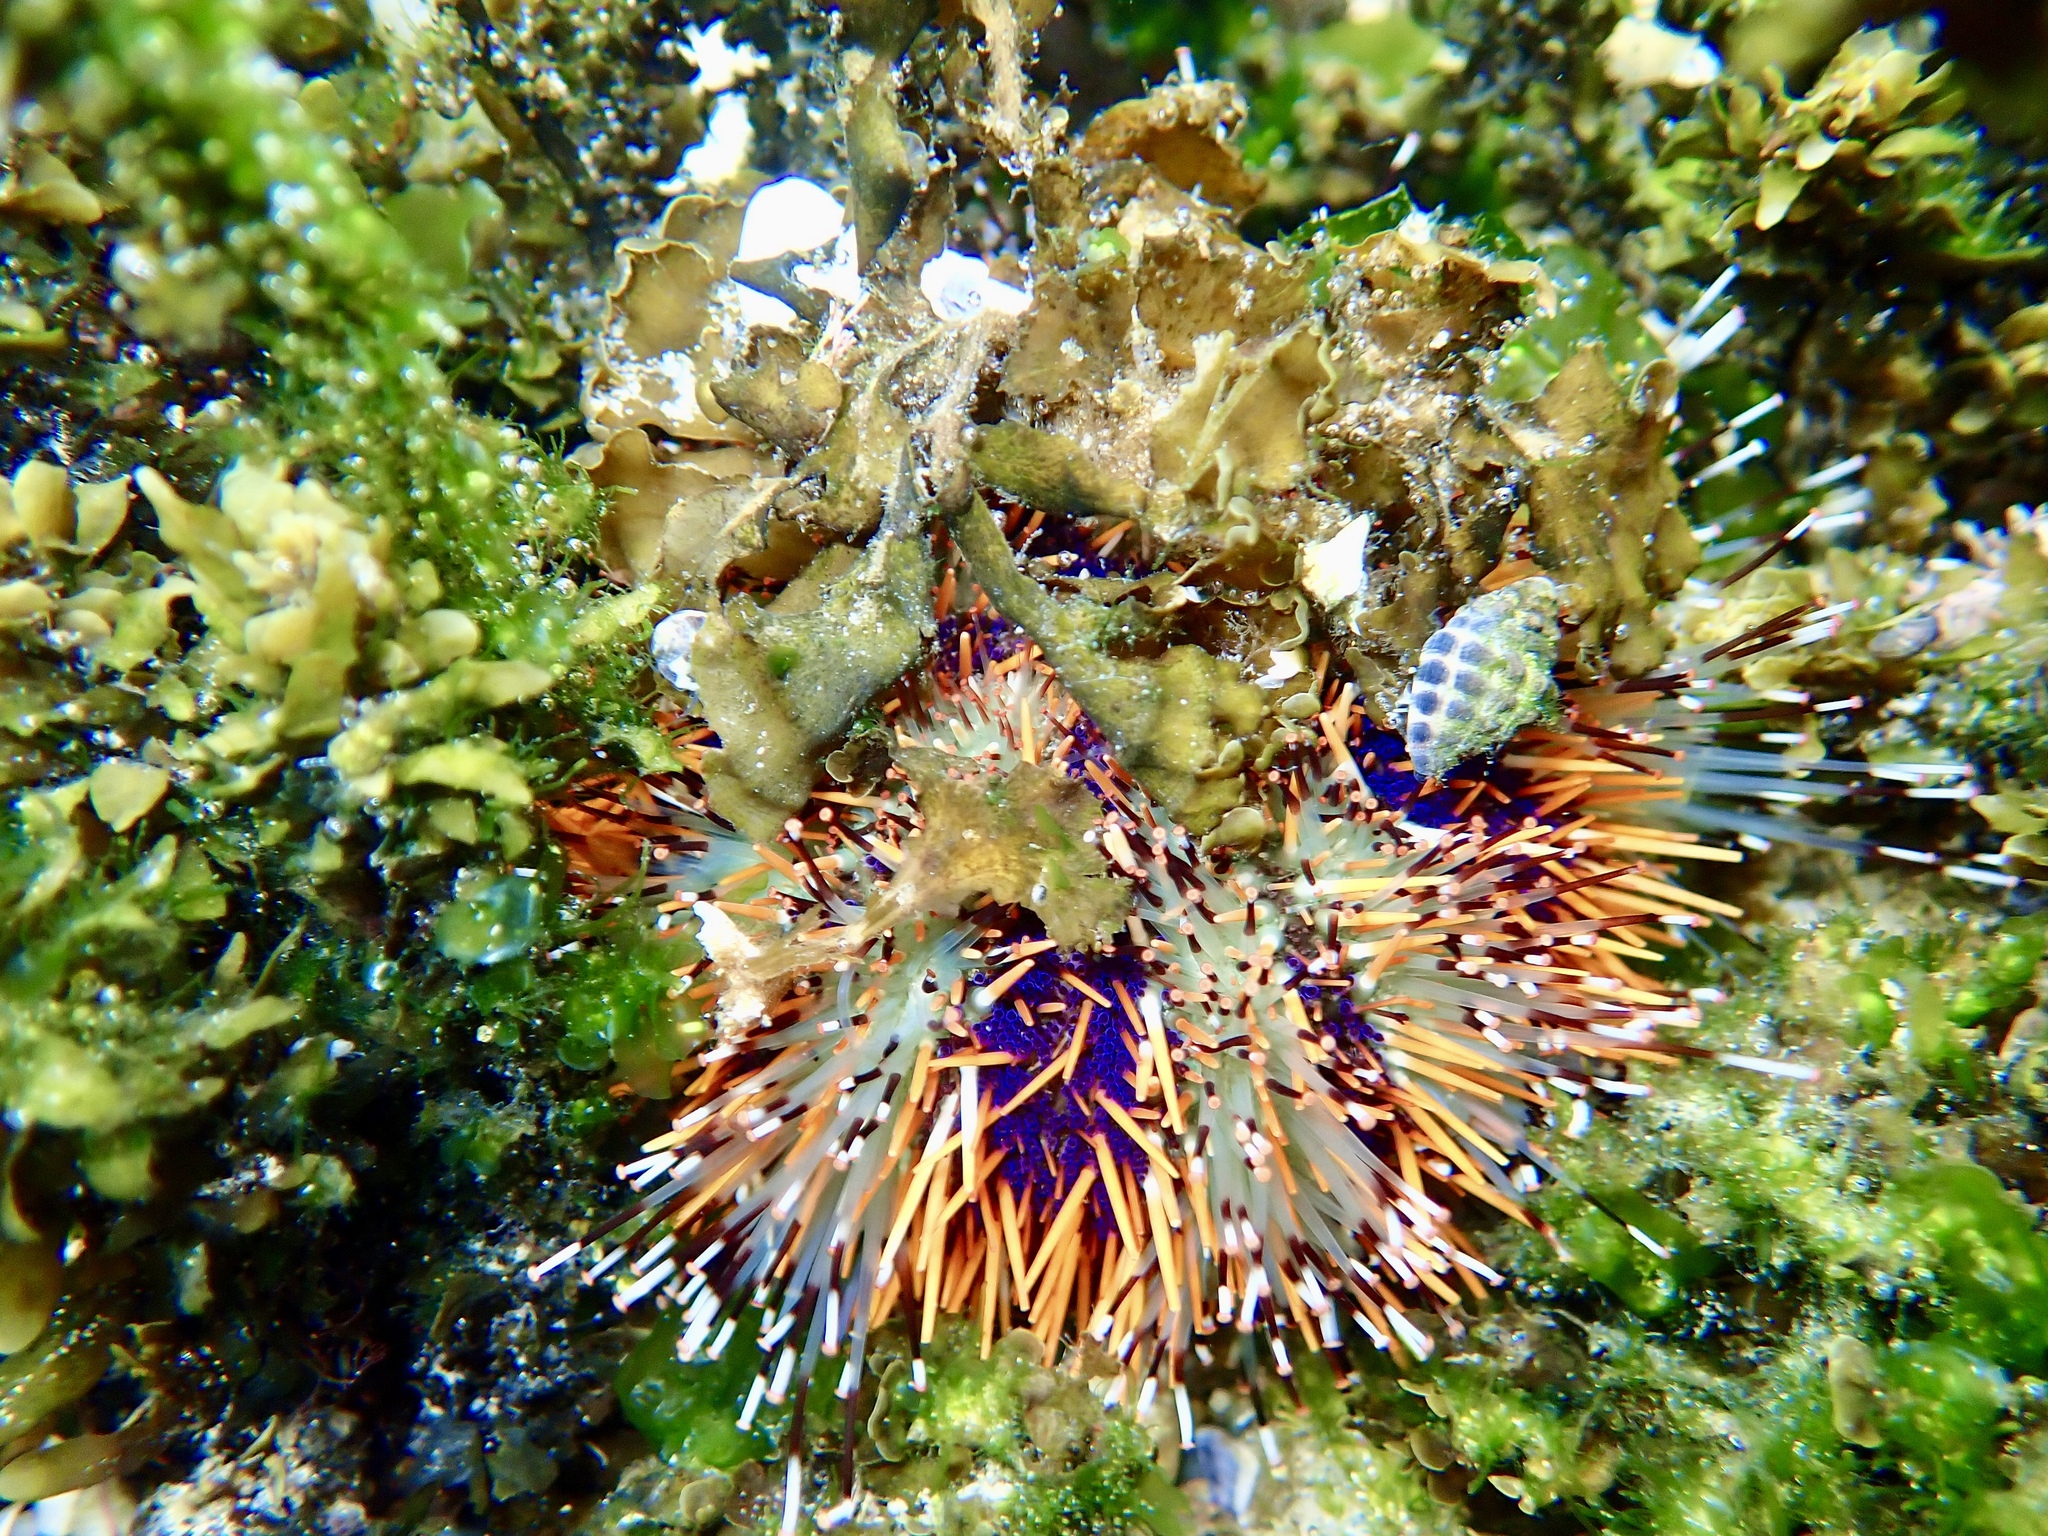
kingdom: Animalia
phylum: Echinodermata
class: Echinoidea
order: Camarodonta
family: Toxopneustidae
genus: Tripneustes
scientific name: Tripneustes gratilla
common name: Bischofsmützenseeigel
